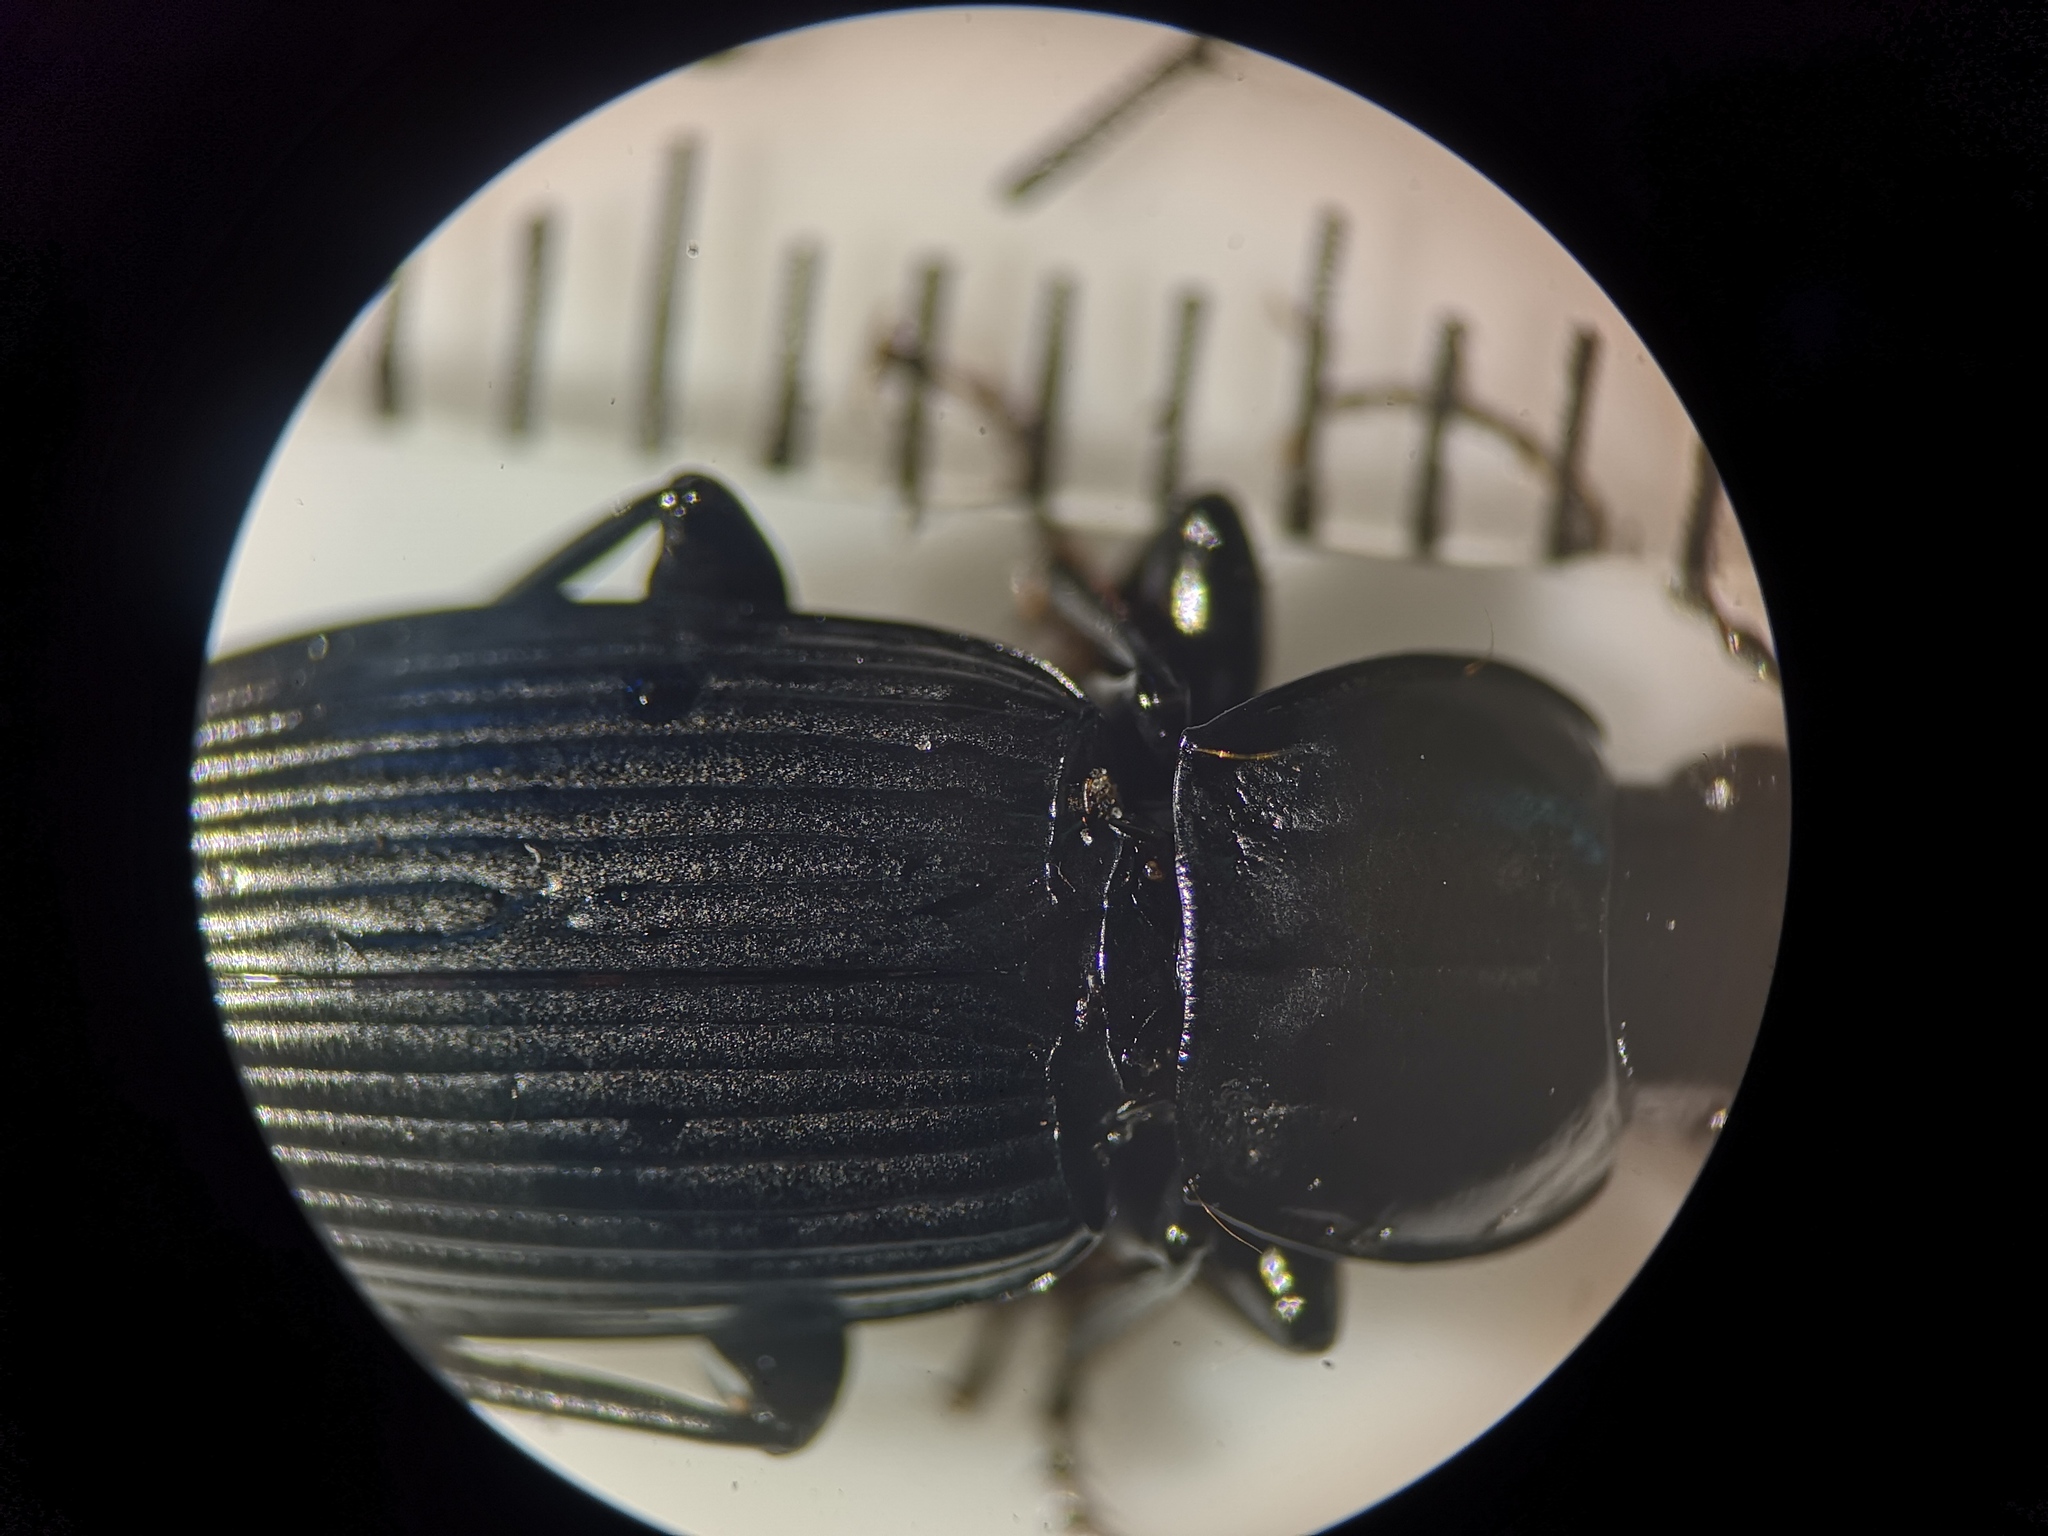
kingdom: Animalia
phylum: Arthropoda
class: Insecta
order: Coleoptera
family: Carabidae
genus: Pterostichus
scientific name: Pterostichus melanarius
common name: European dark harp ground beetle
